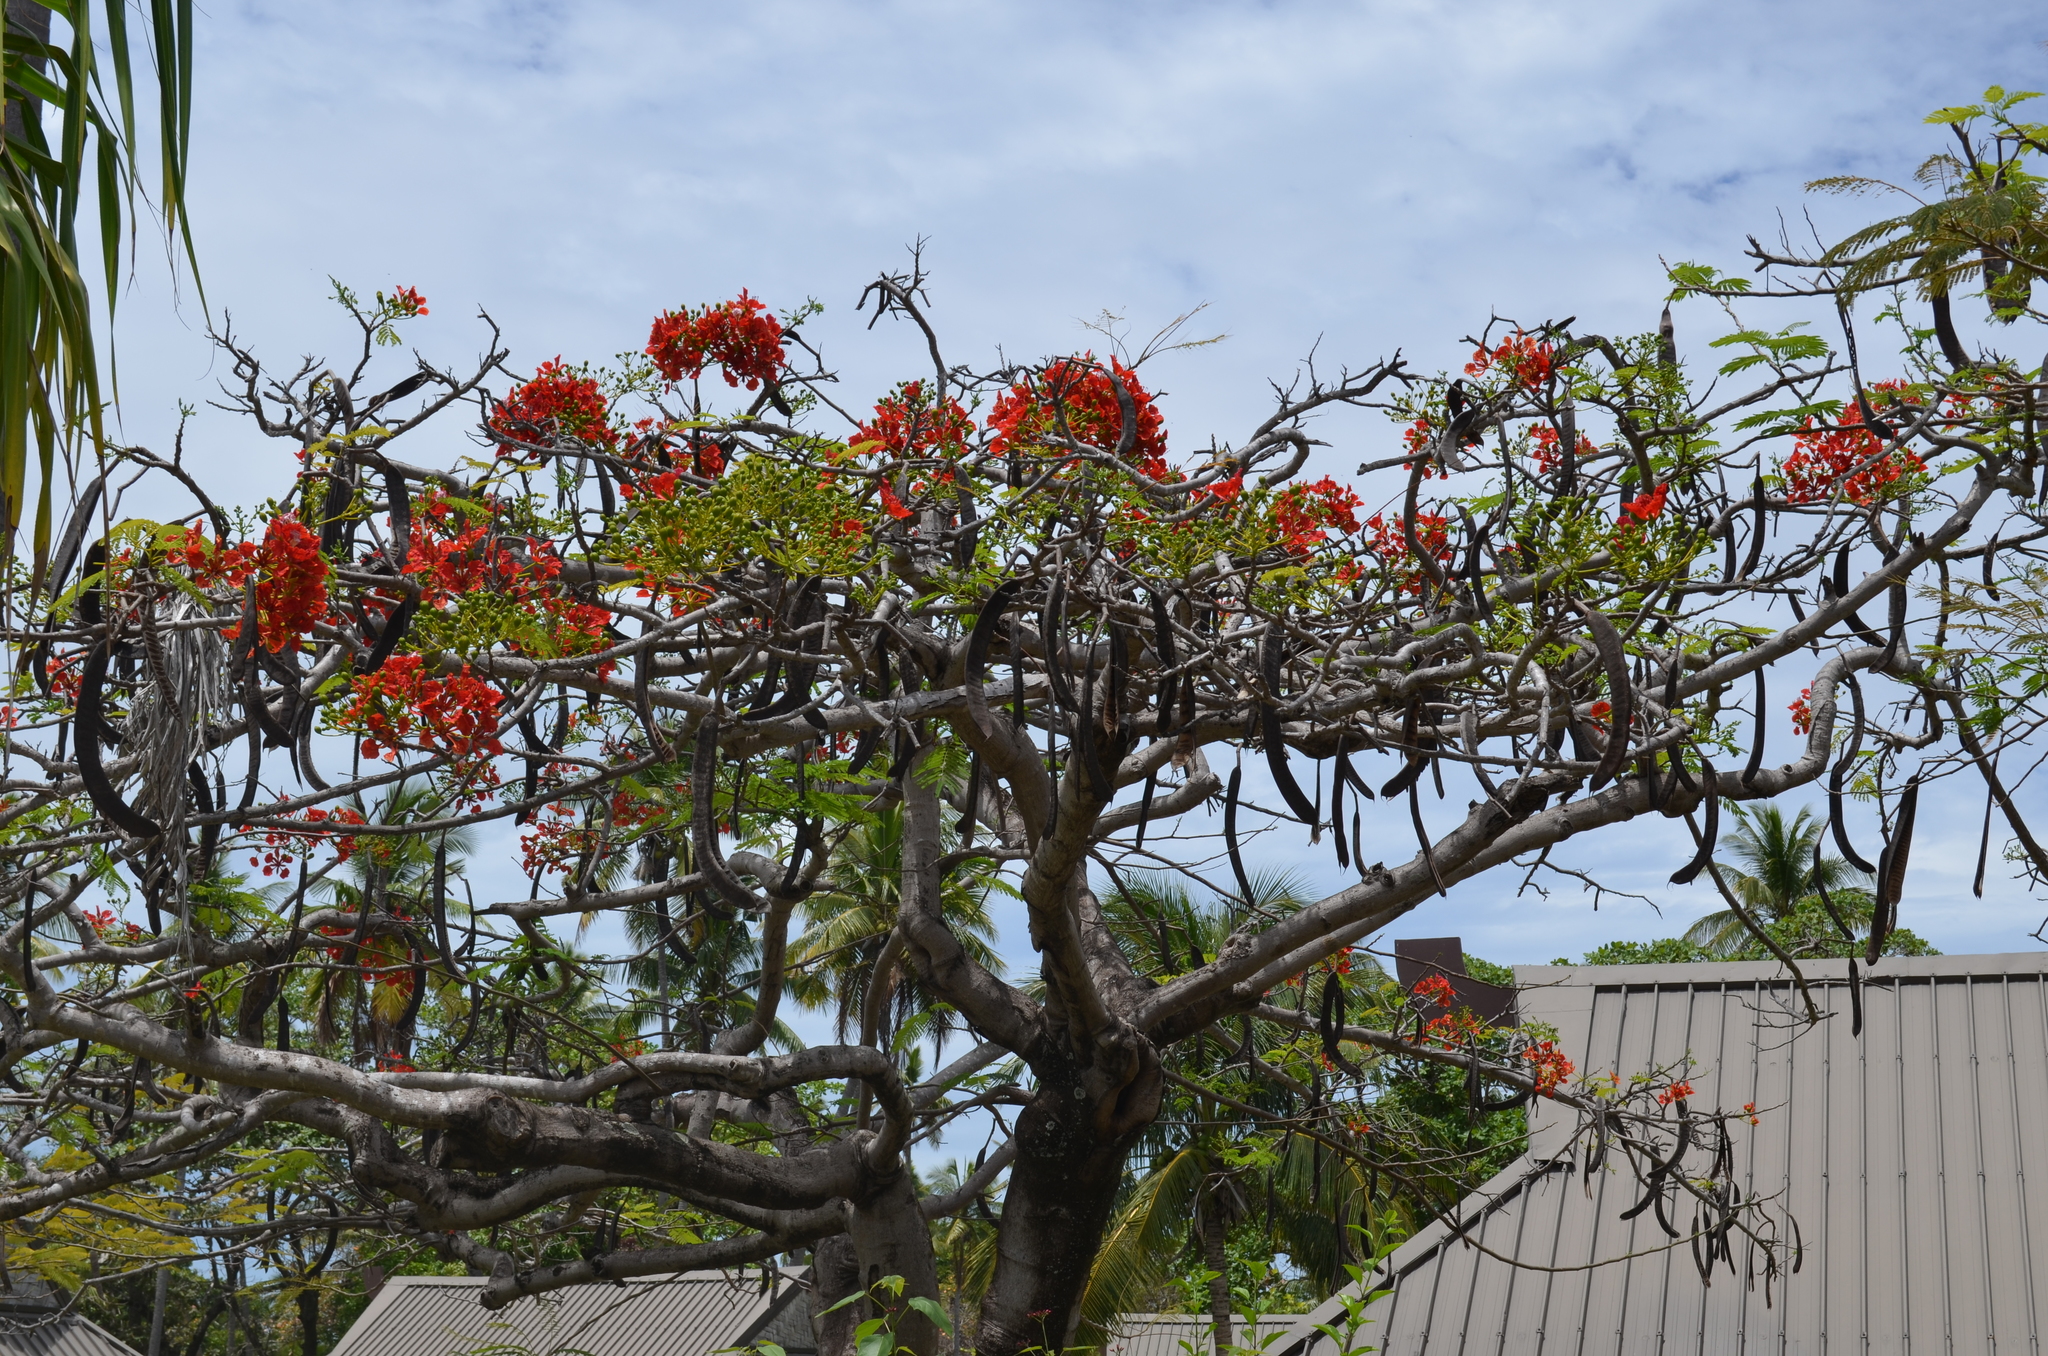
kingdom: Plantae
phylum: Tracheophyta
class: Magnoliopsida
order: Fabales
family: Fabaceae
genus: Delonix
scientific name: Delonix regia
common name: Royal poinciana
